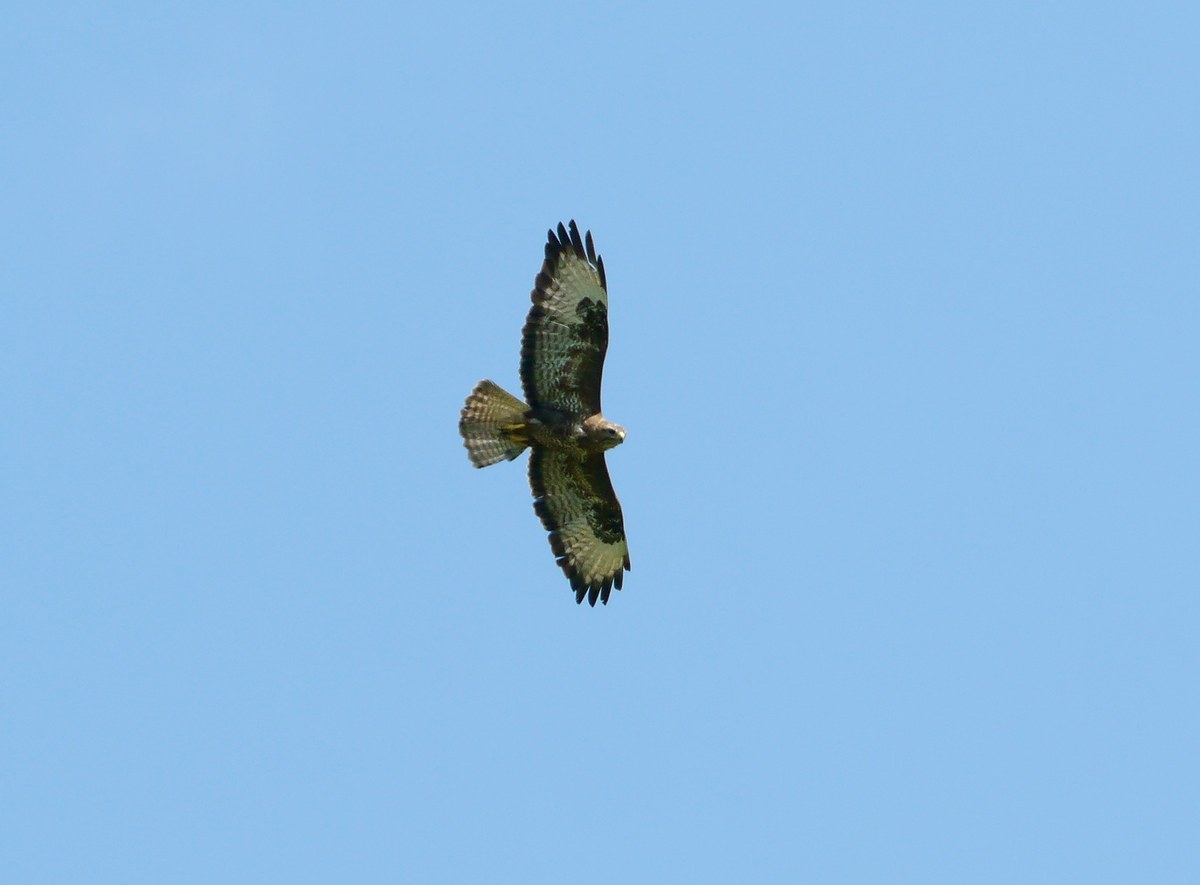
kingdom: Animalia
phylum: Chordata
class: Aves
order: Accipitriformes
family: Accipitridae
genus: Buteo
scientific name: Buteo buteo
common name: Common buzzard
